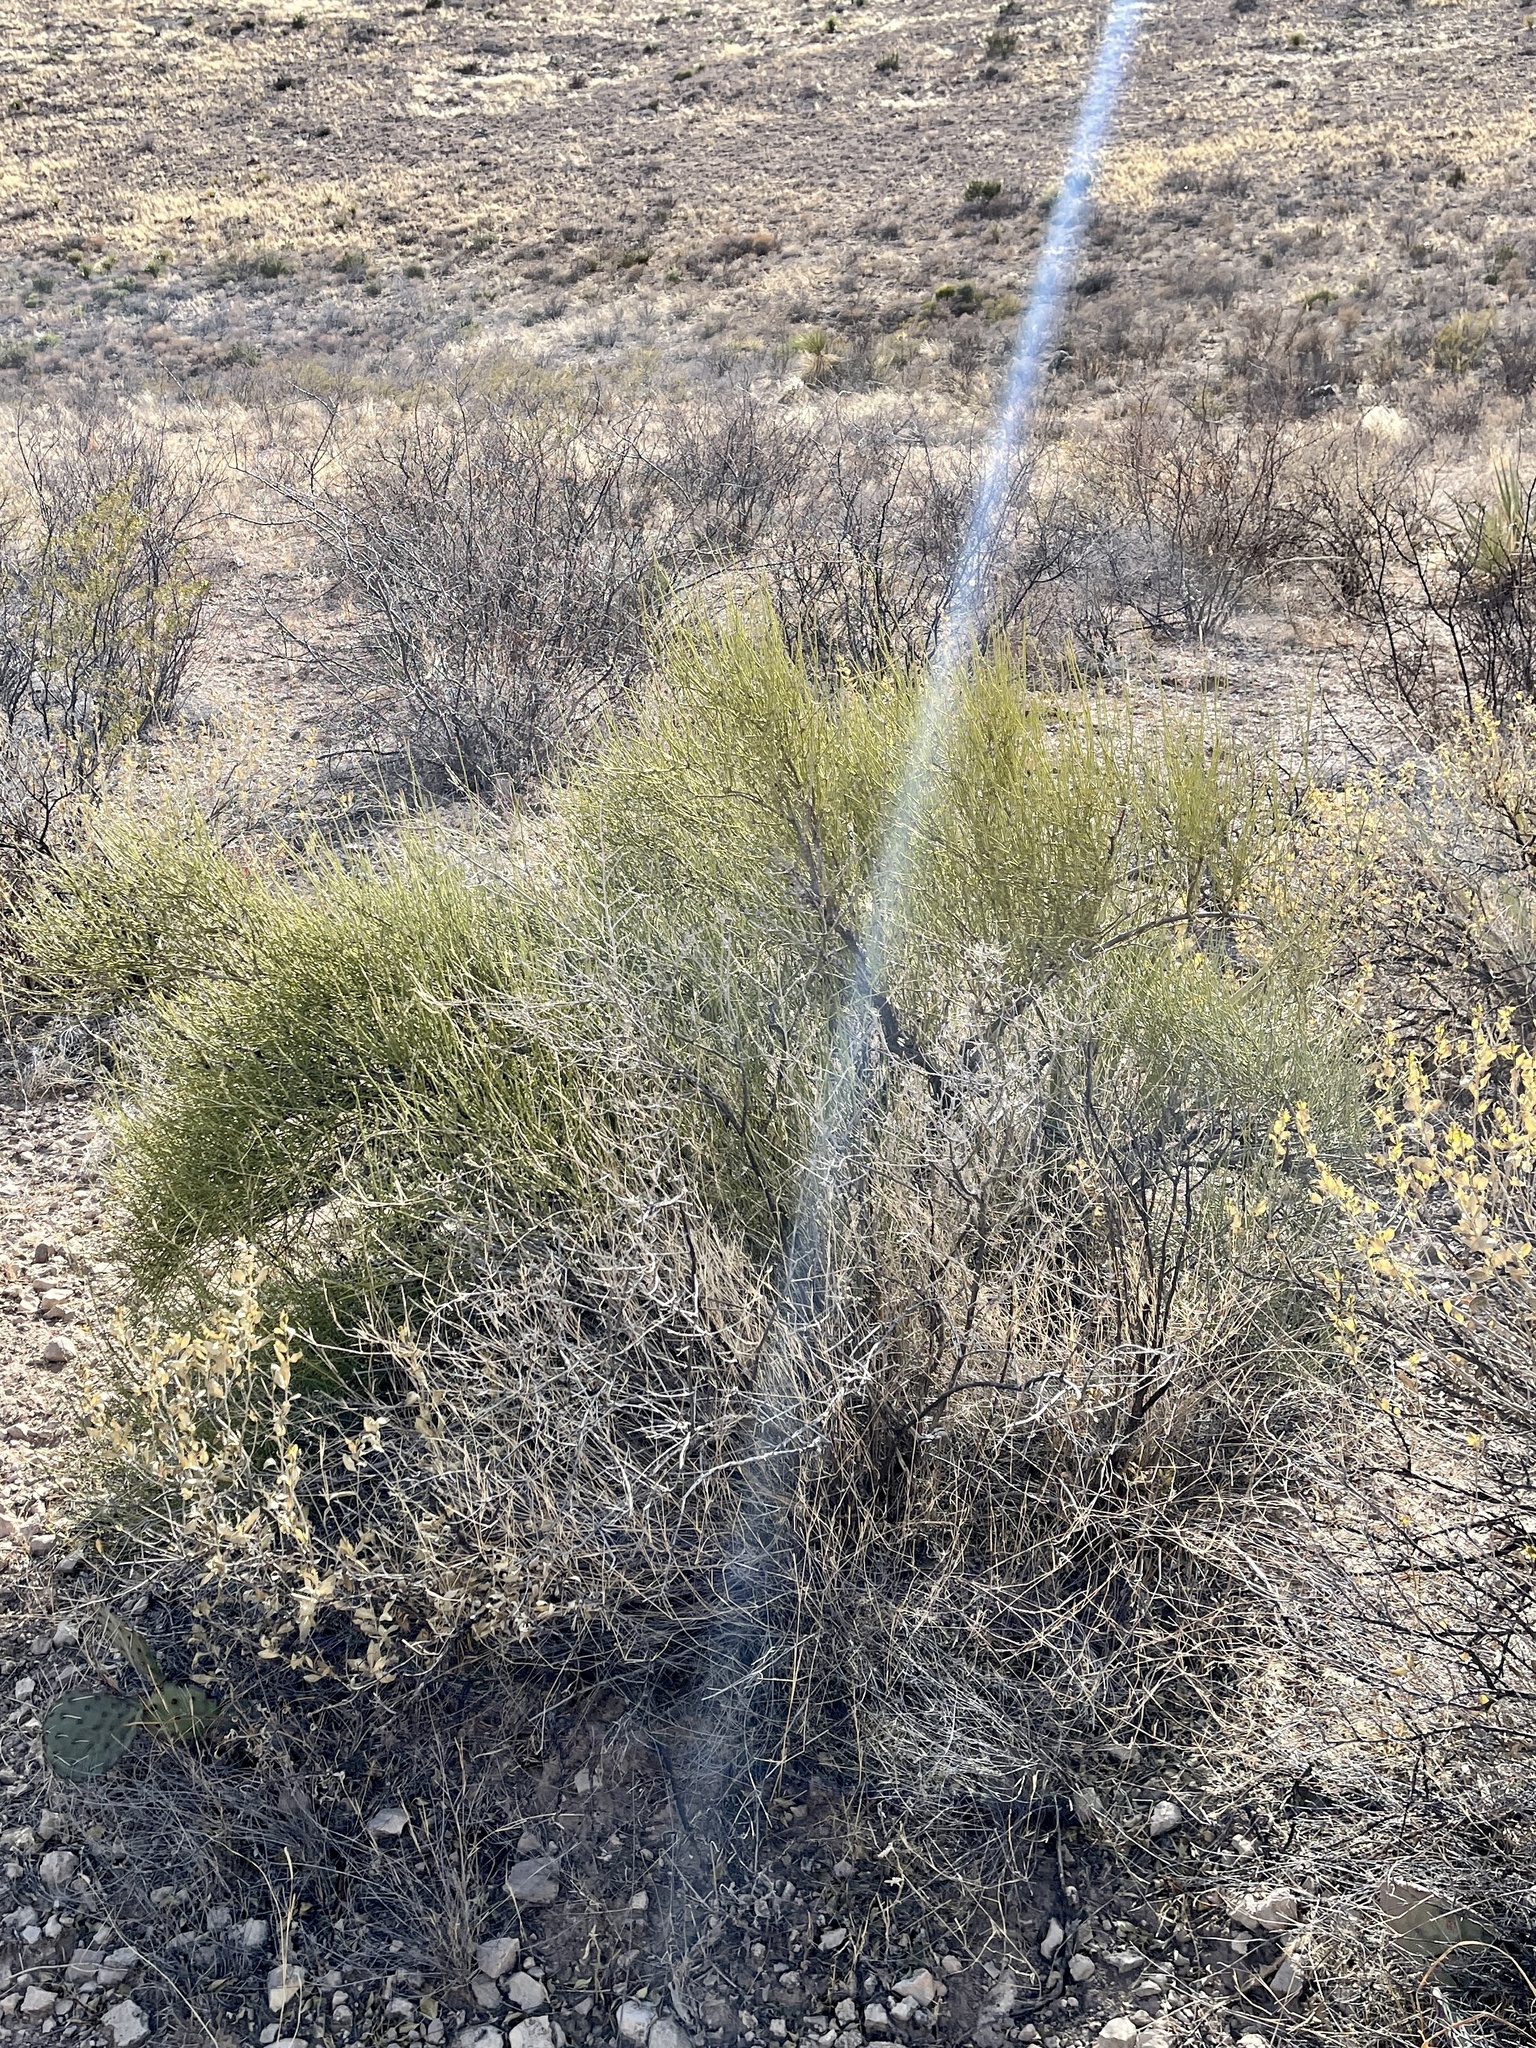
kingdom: Plantae
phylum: Tracheophyta
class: Gnetopsida
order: Ephedrales
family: Ephedraceae
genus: Ephedra
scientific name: Ephedra trifurca
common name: Mexican-tea
